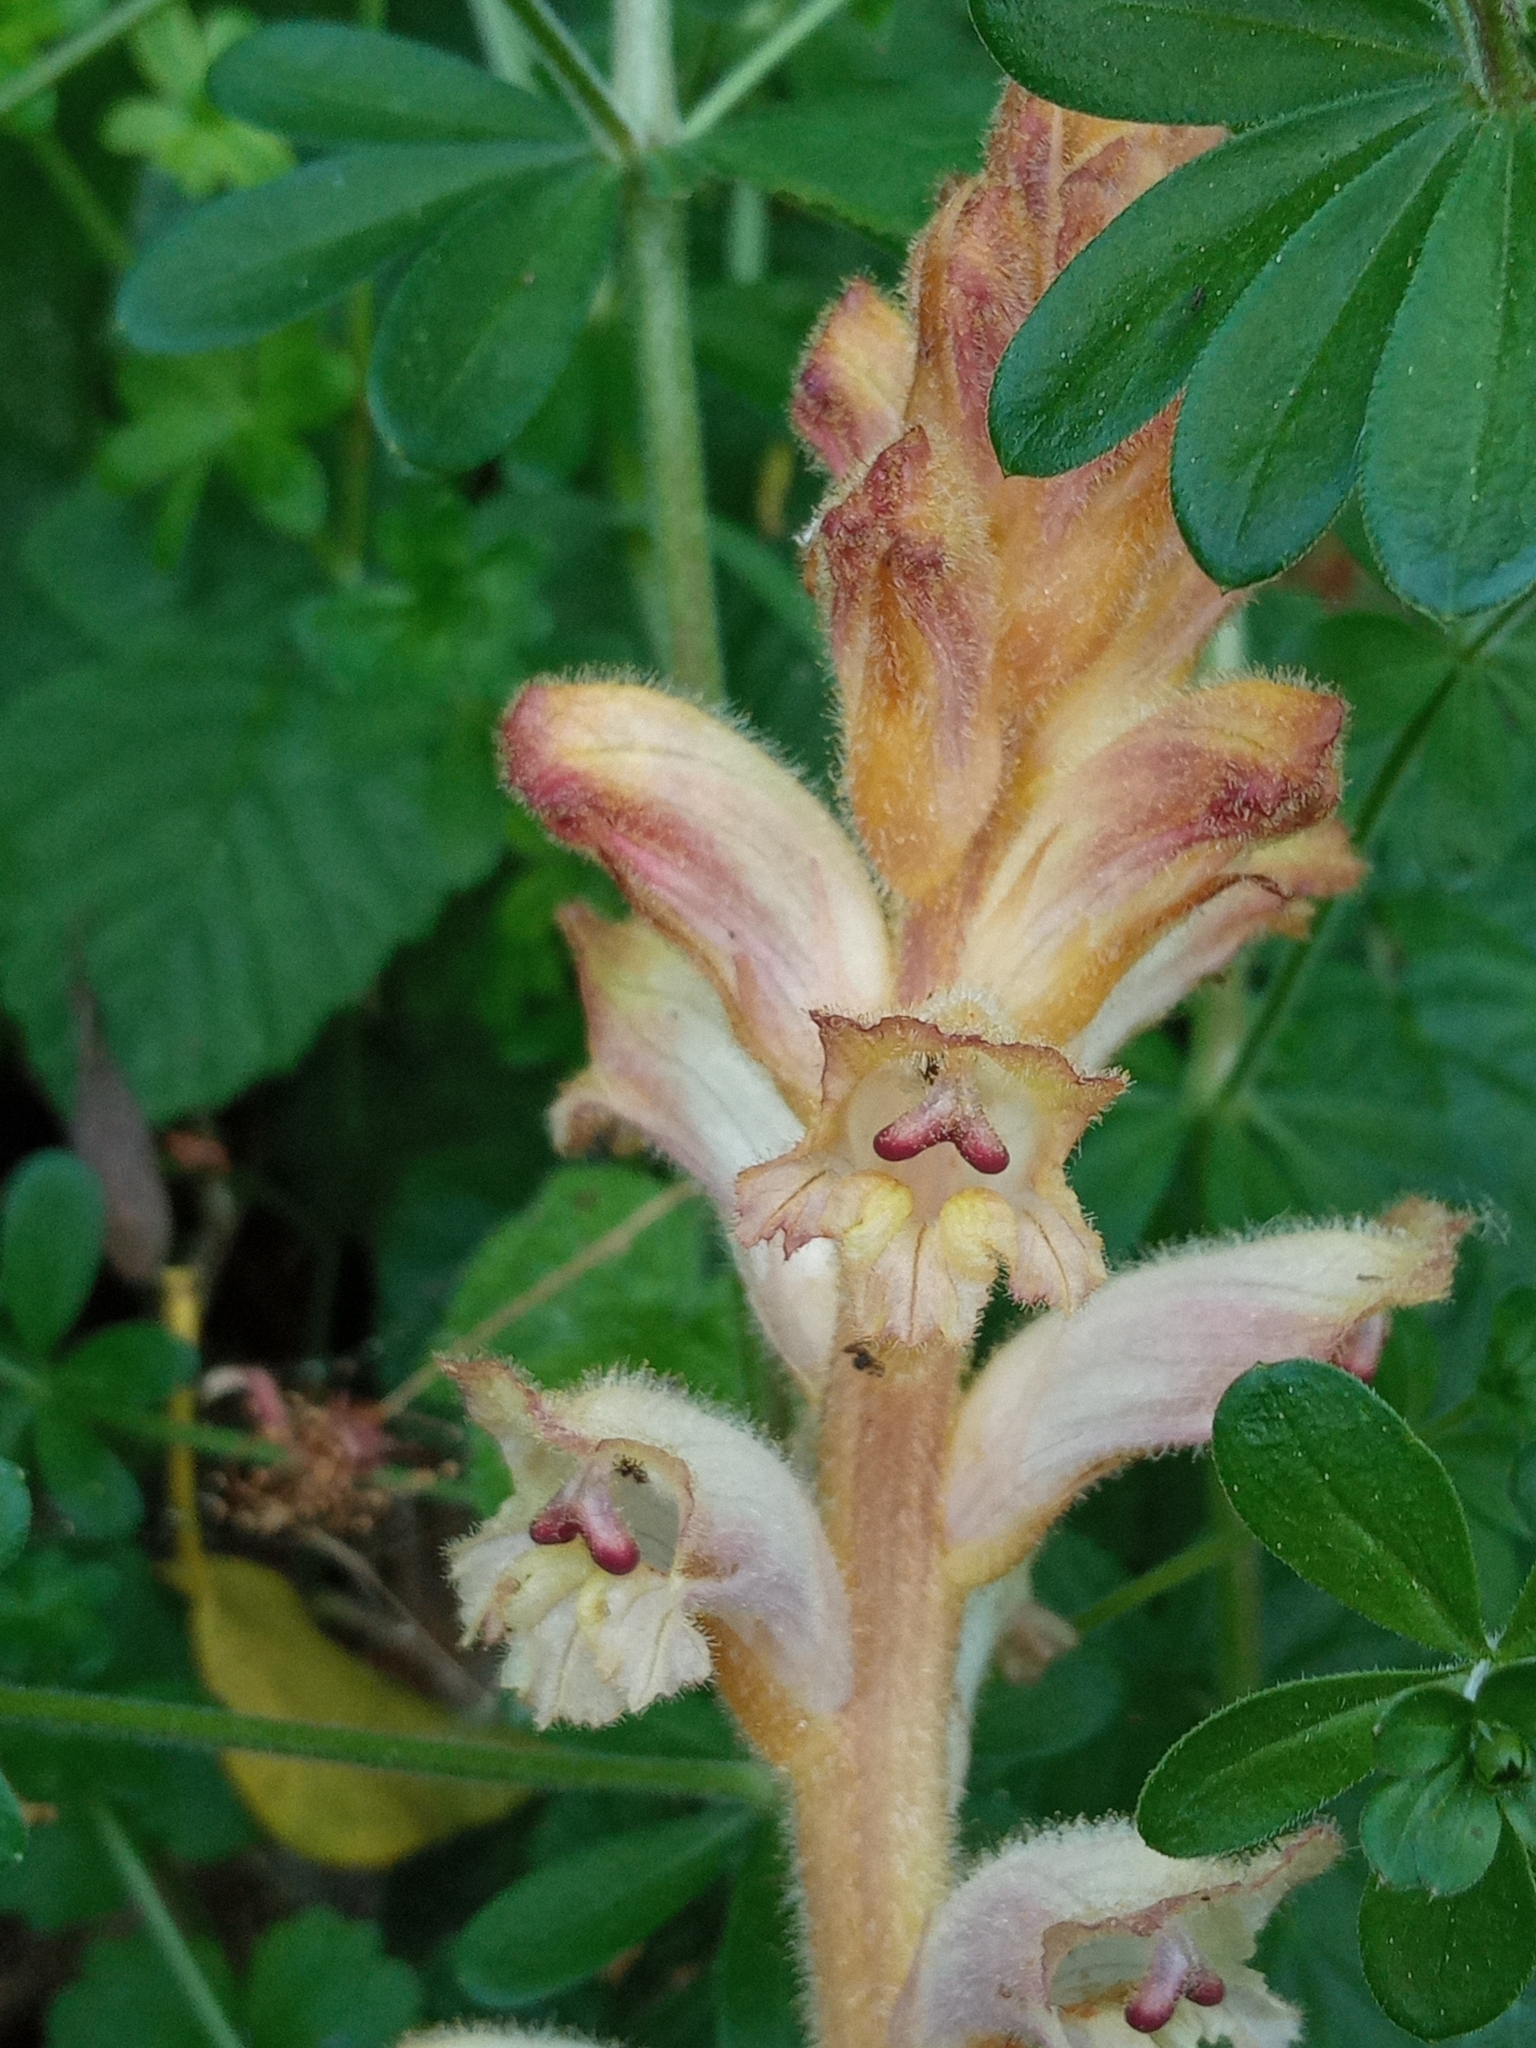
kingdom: Plantae
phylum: Tracheophyta
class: Magnoliopsida
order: Lamiales
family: Orobanchaceae
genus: Orobanche
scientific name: Orobanche caryophyllacea
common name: Bedstraw broomrape
